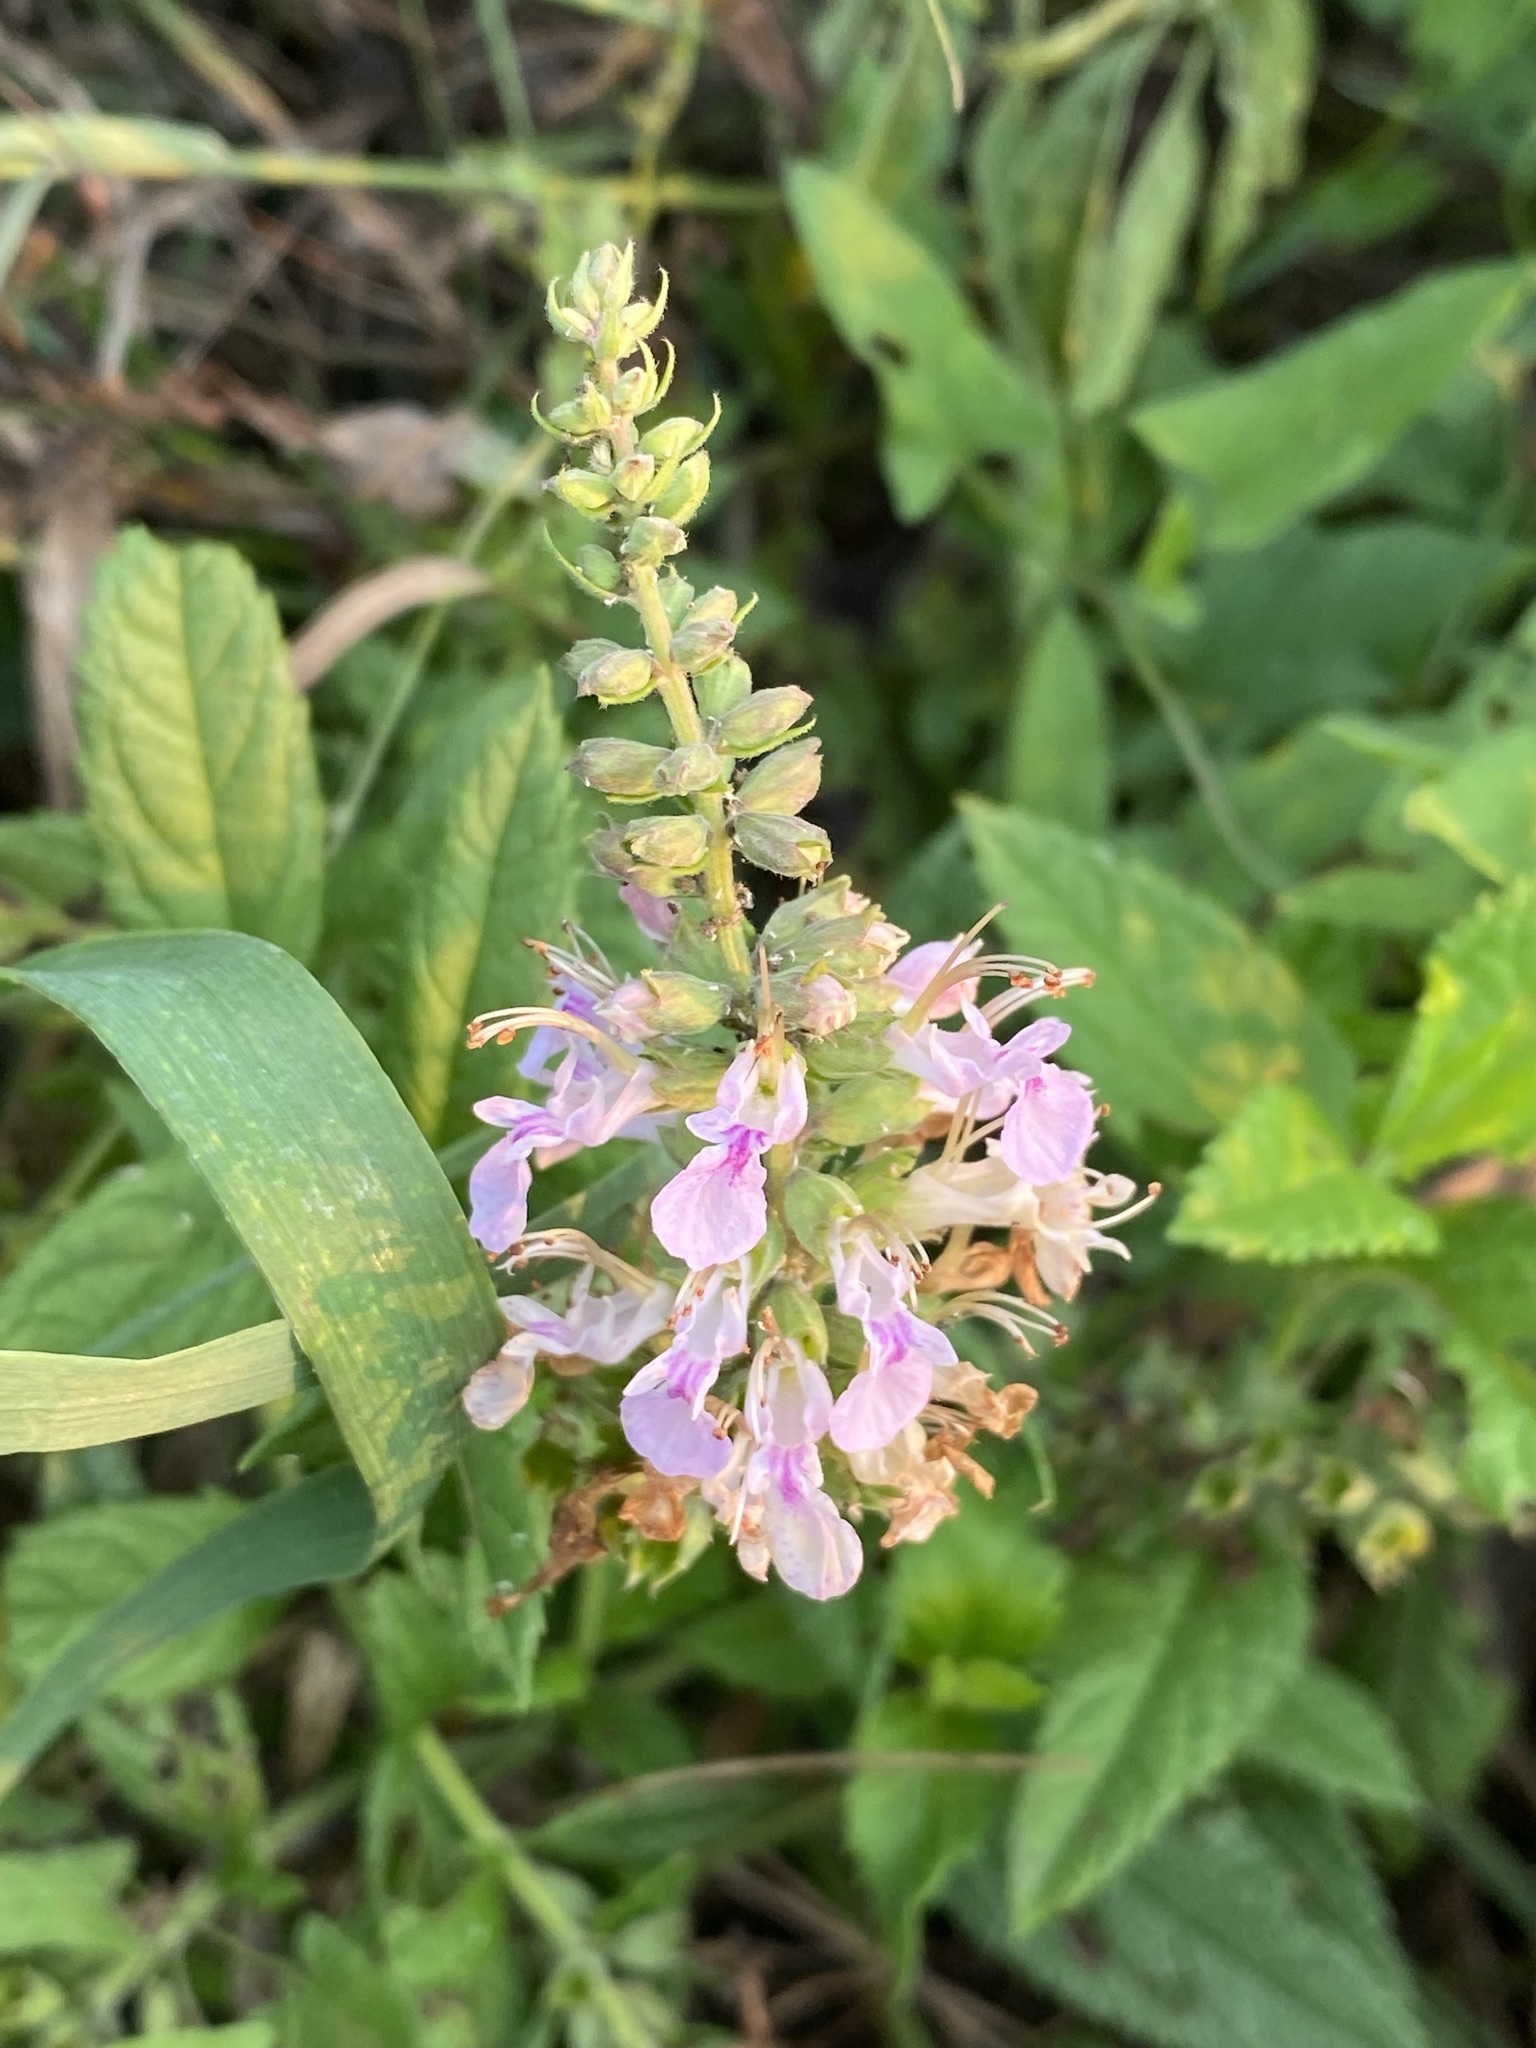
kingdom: Plantae
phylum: Tracheophyta
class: Magnoliopsida
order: Lamiales
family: Lamiaceae
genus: Teucrium
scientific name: Teucrium canadense
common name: American germander
